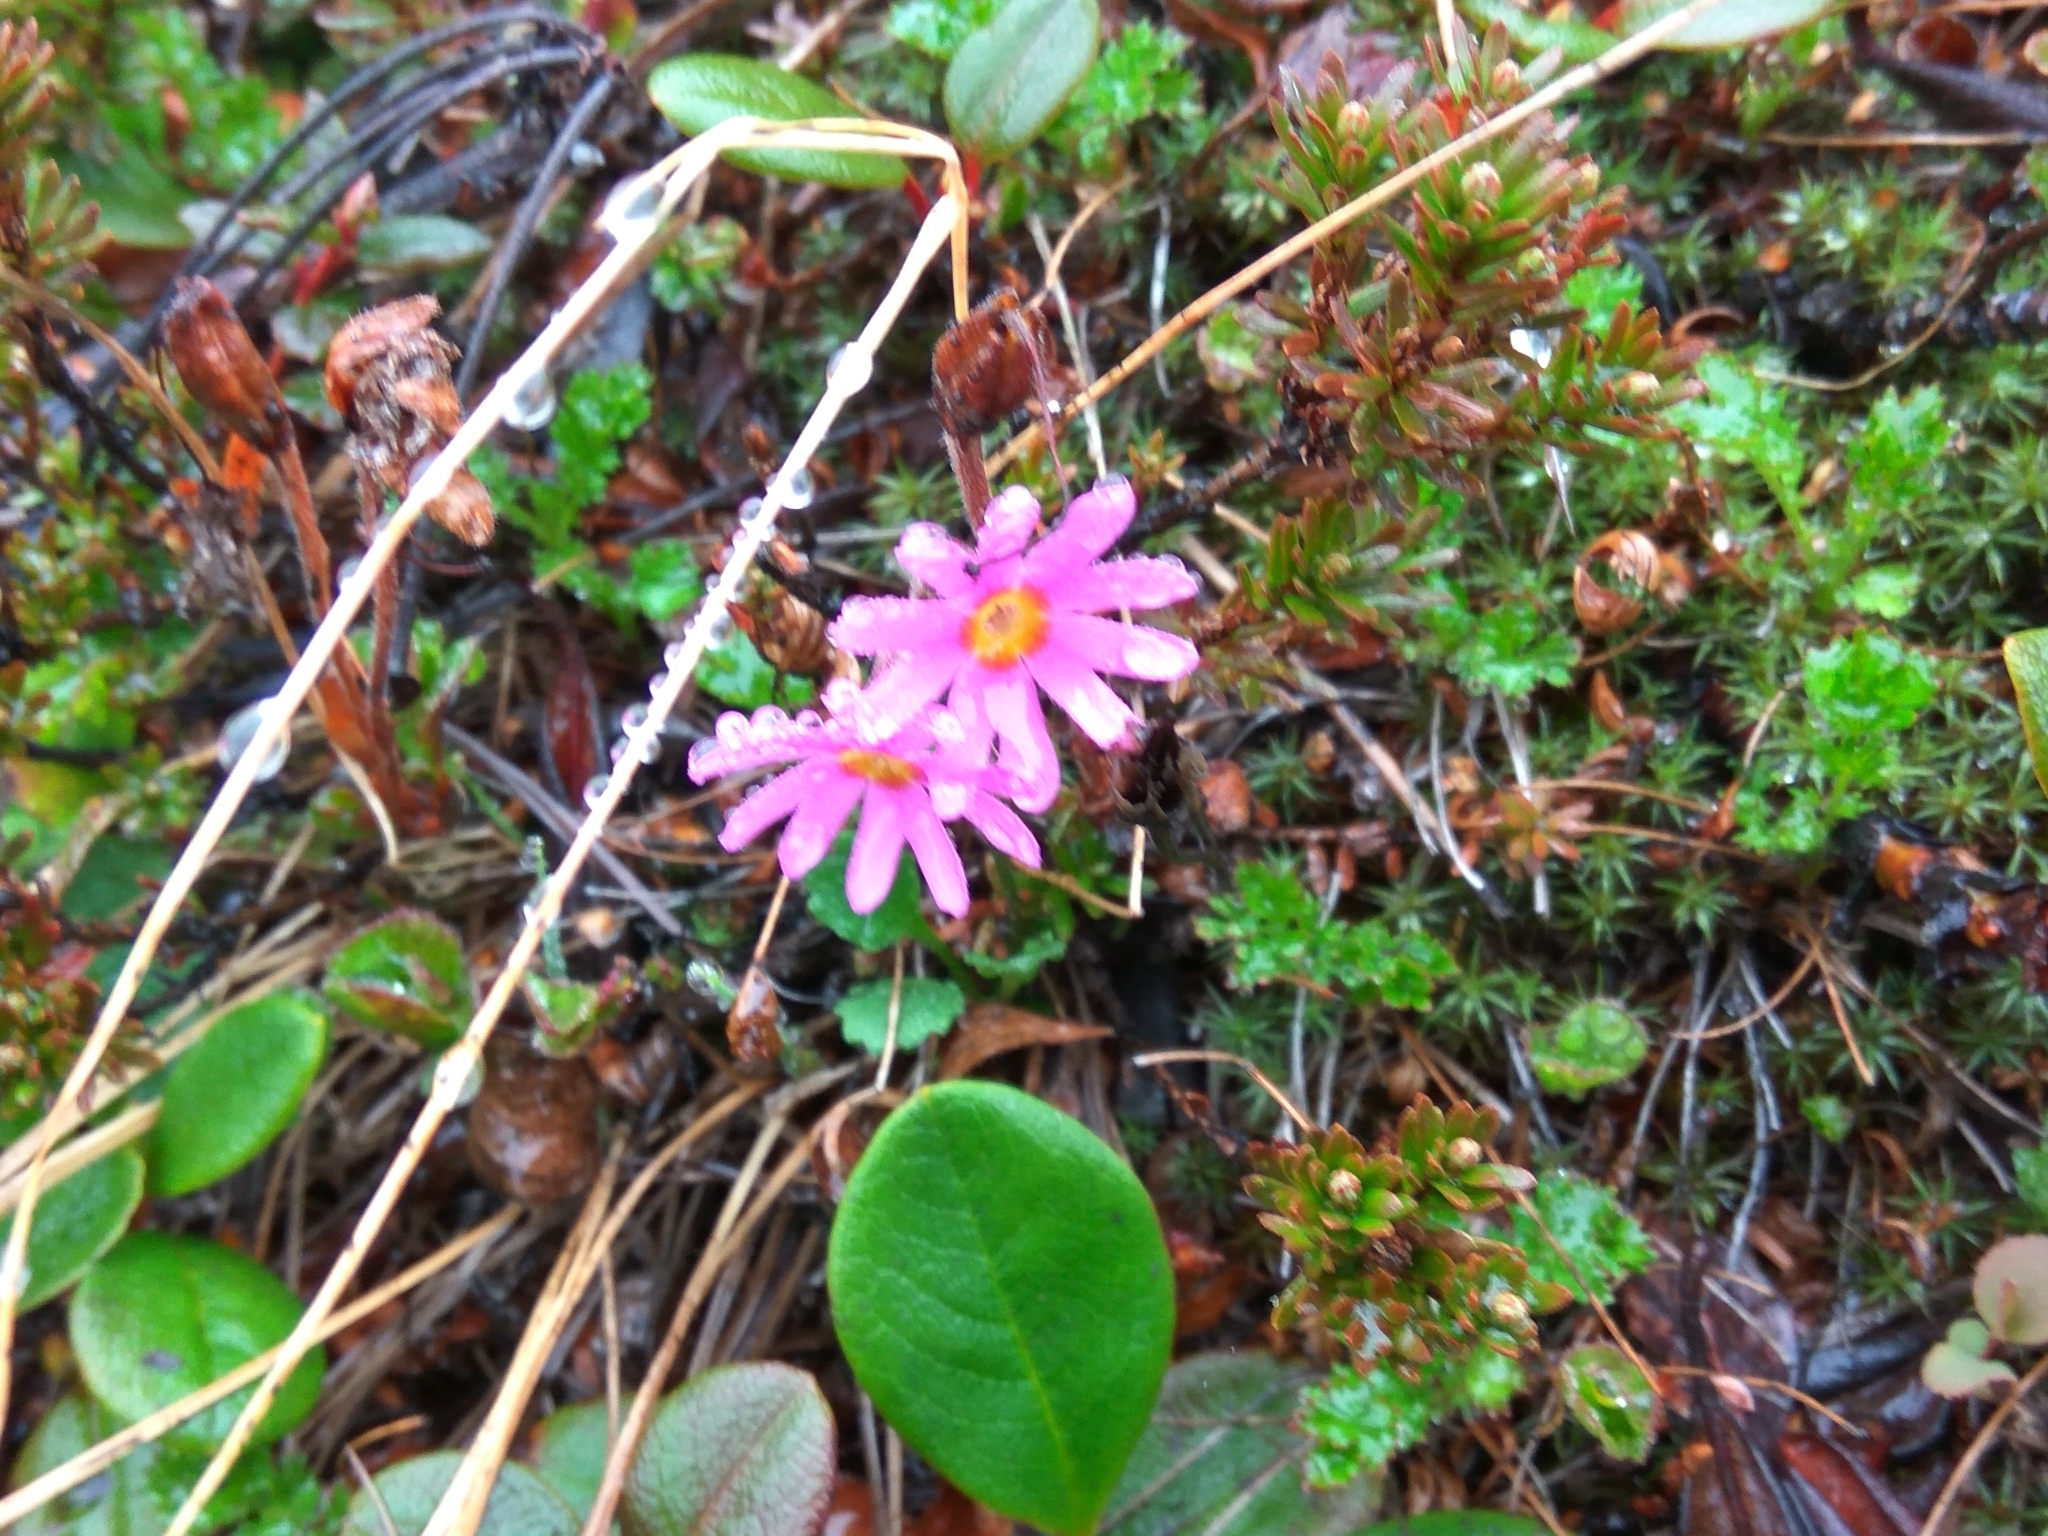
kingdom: Plantae
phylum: Tracheophyta
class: Magnoliopsida
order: Ericales
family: Primulaceae
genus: Primula
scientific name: Primula cuneifolia
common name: Wedge-leaved primrose
